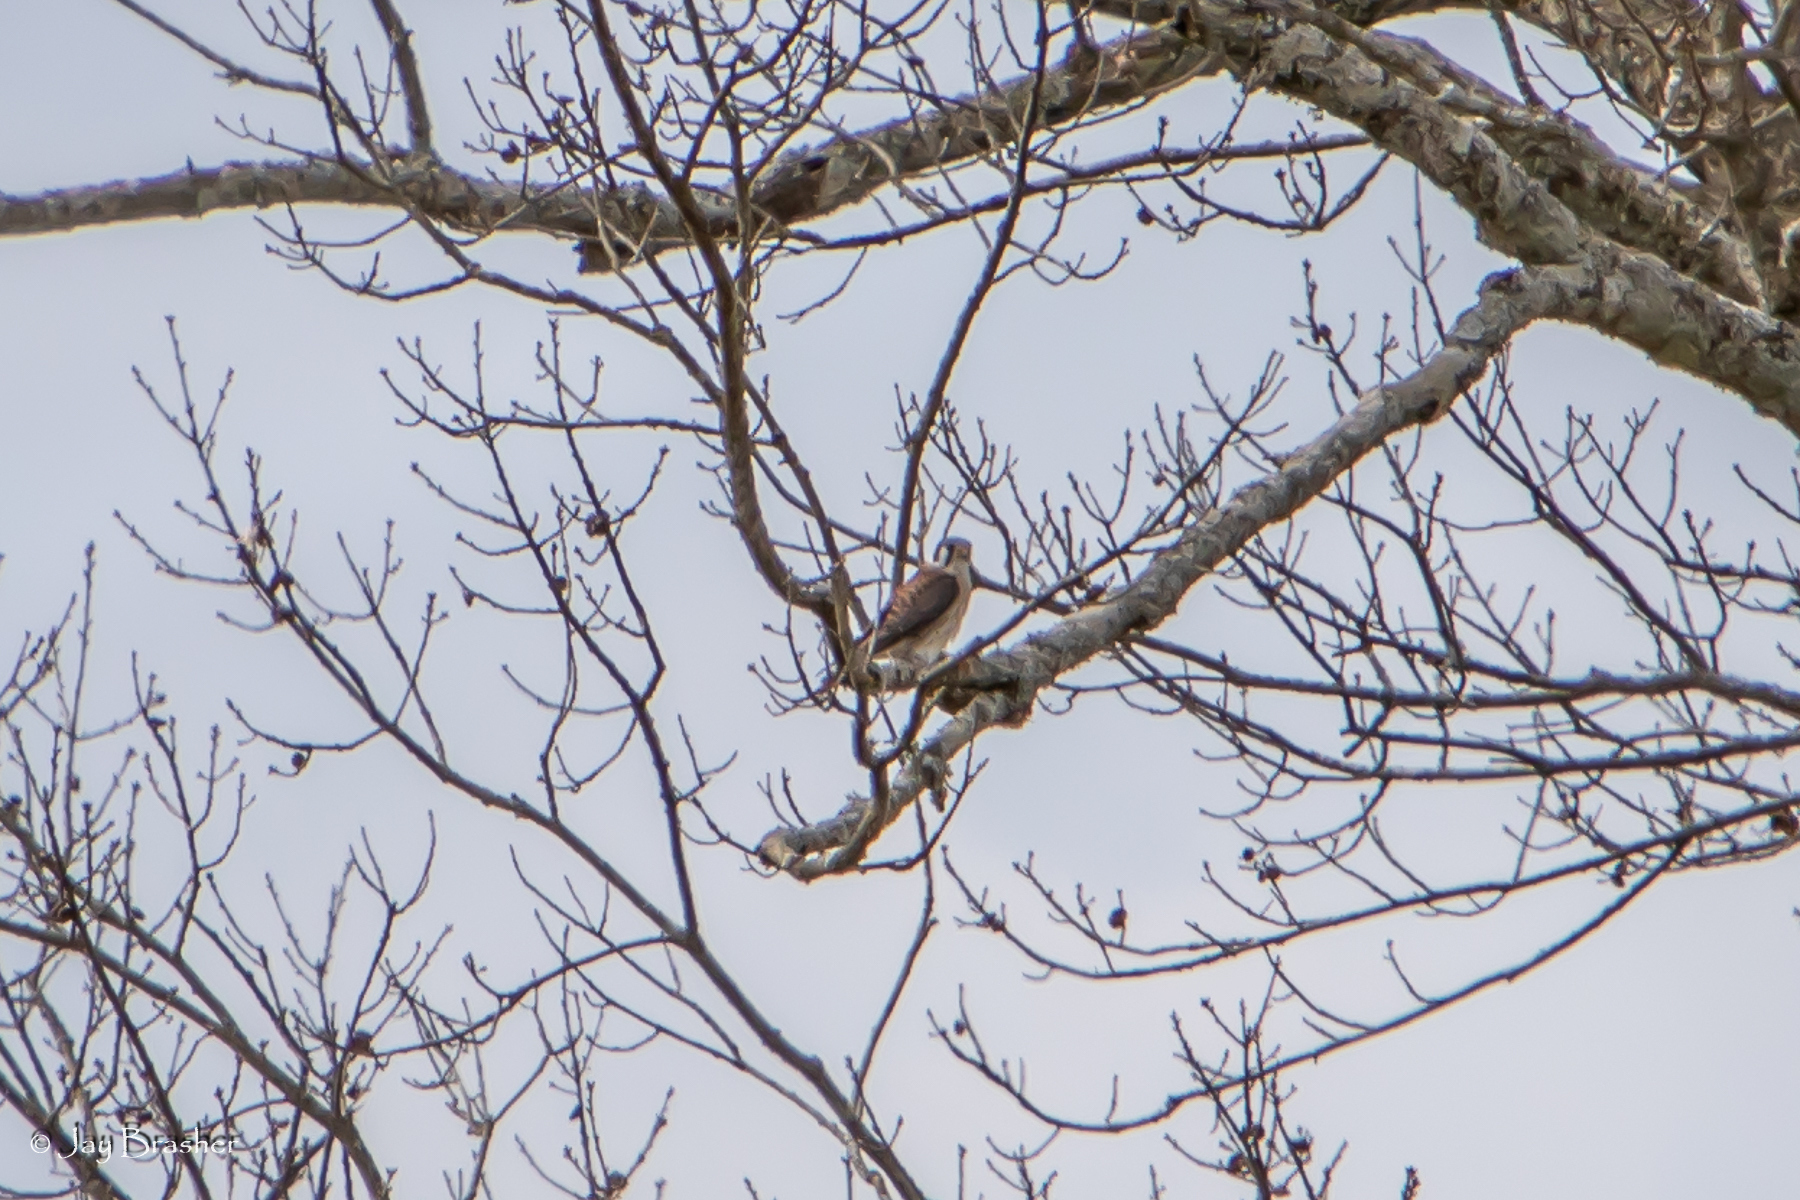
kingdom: Animalia
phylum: Chordata
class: Aves
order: Falconiformes
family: Falconidae
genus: Falco
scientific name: Falco sparverius
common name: American kestrel
